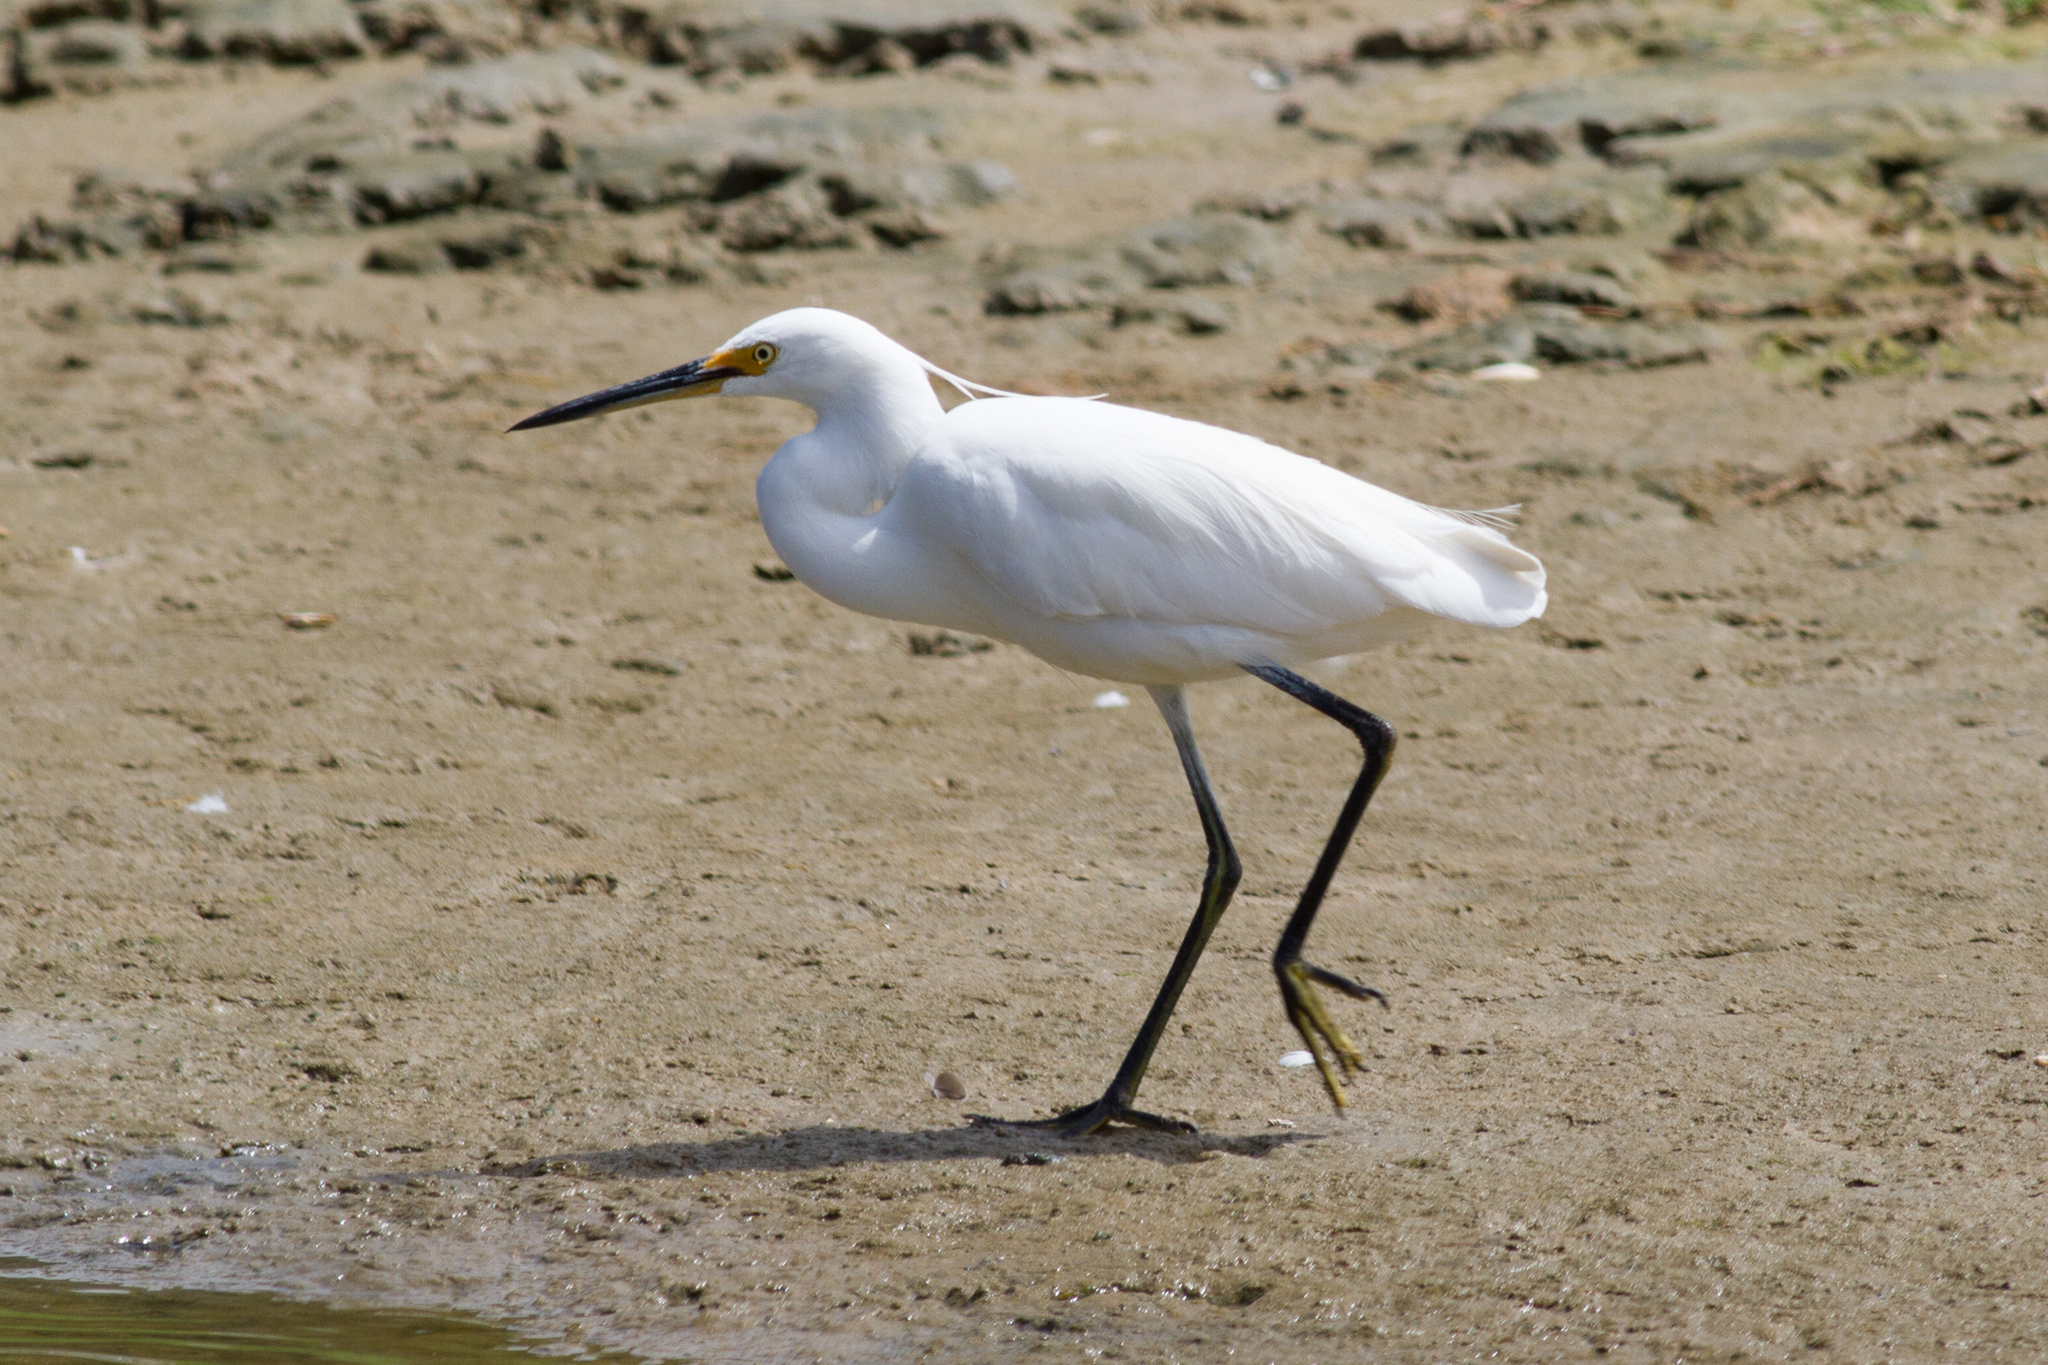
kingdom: Animalia
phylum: Chordata
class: Aves
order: Pelecaniformes
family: Ardeidae
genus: Egretta
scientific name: Egretta garzetta
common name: Little egret
